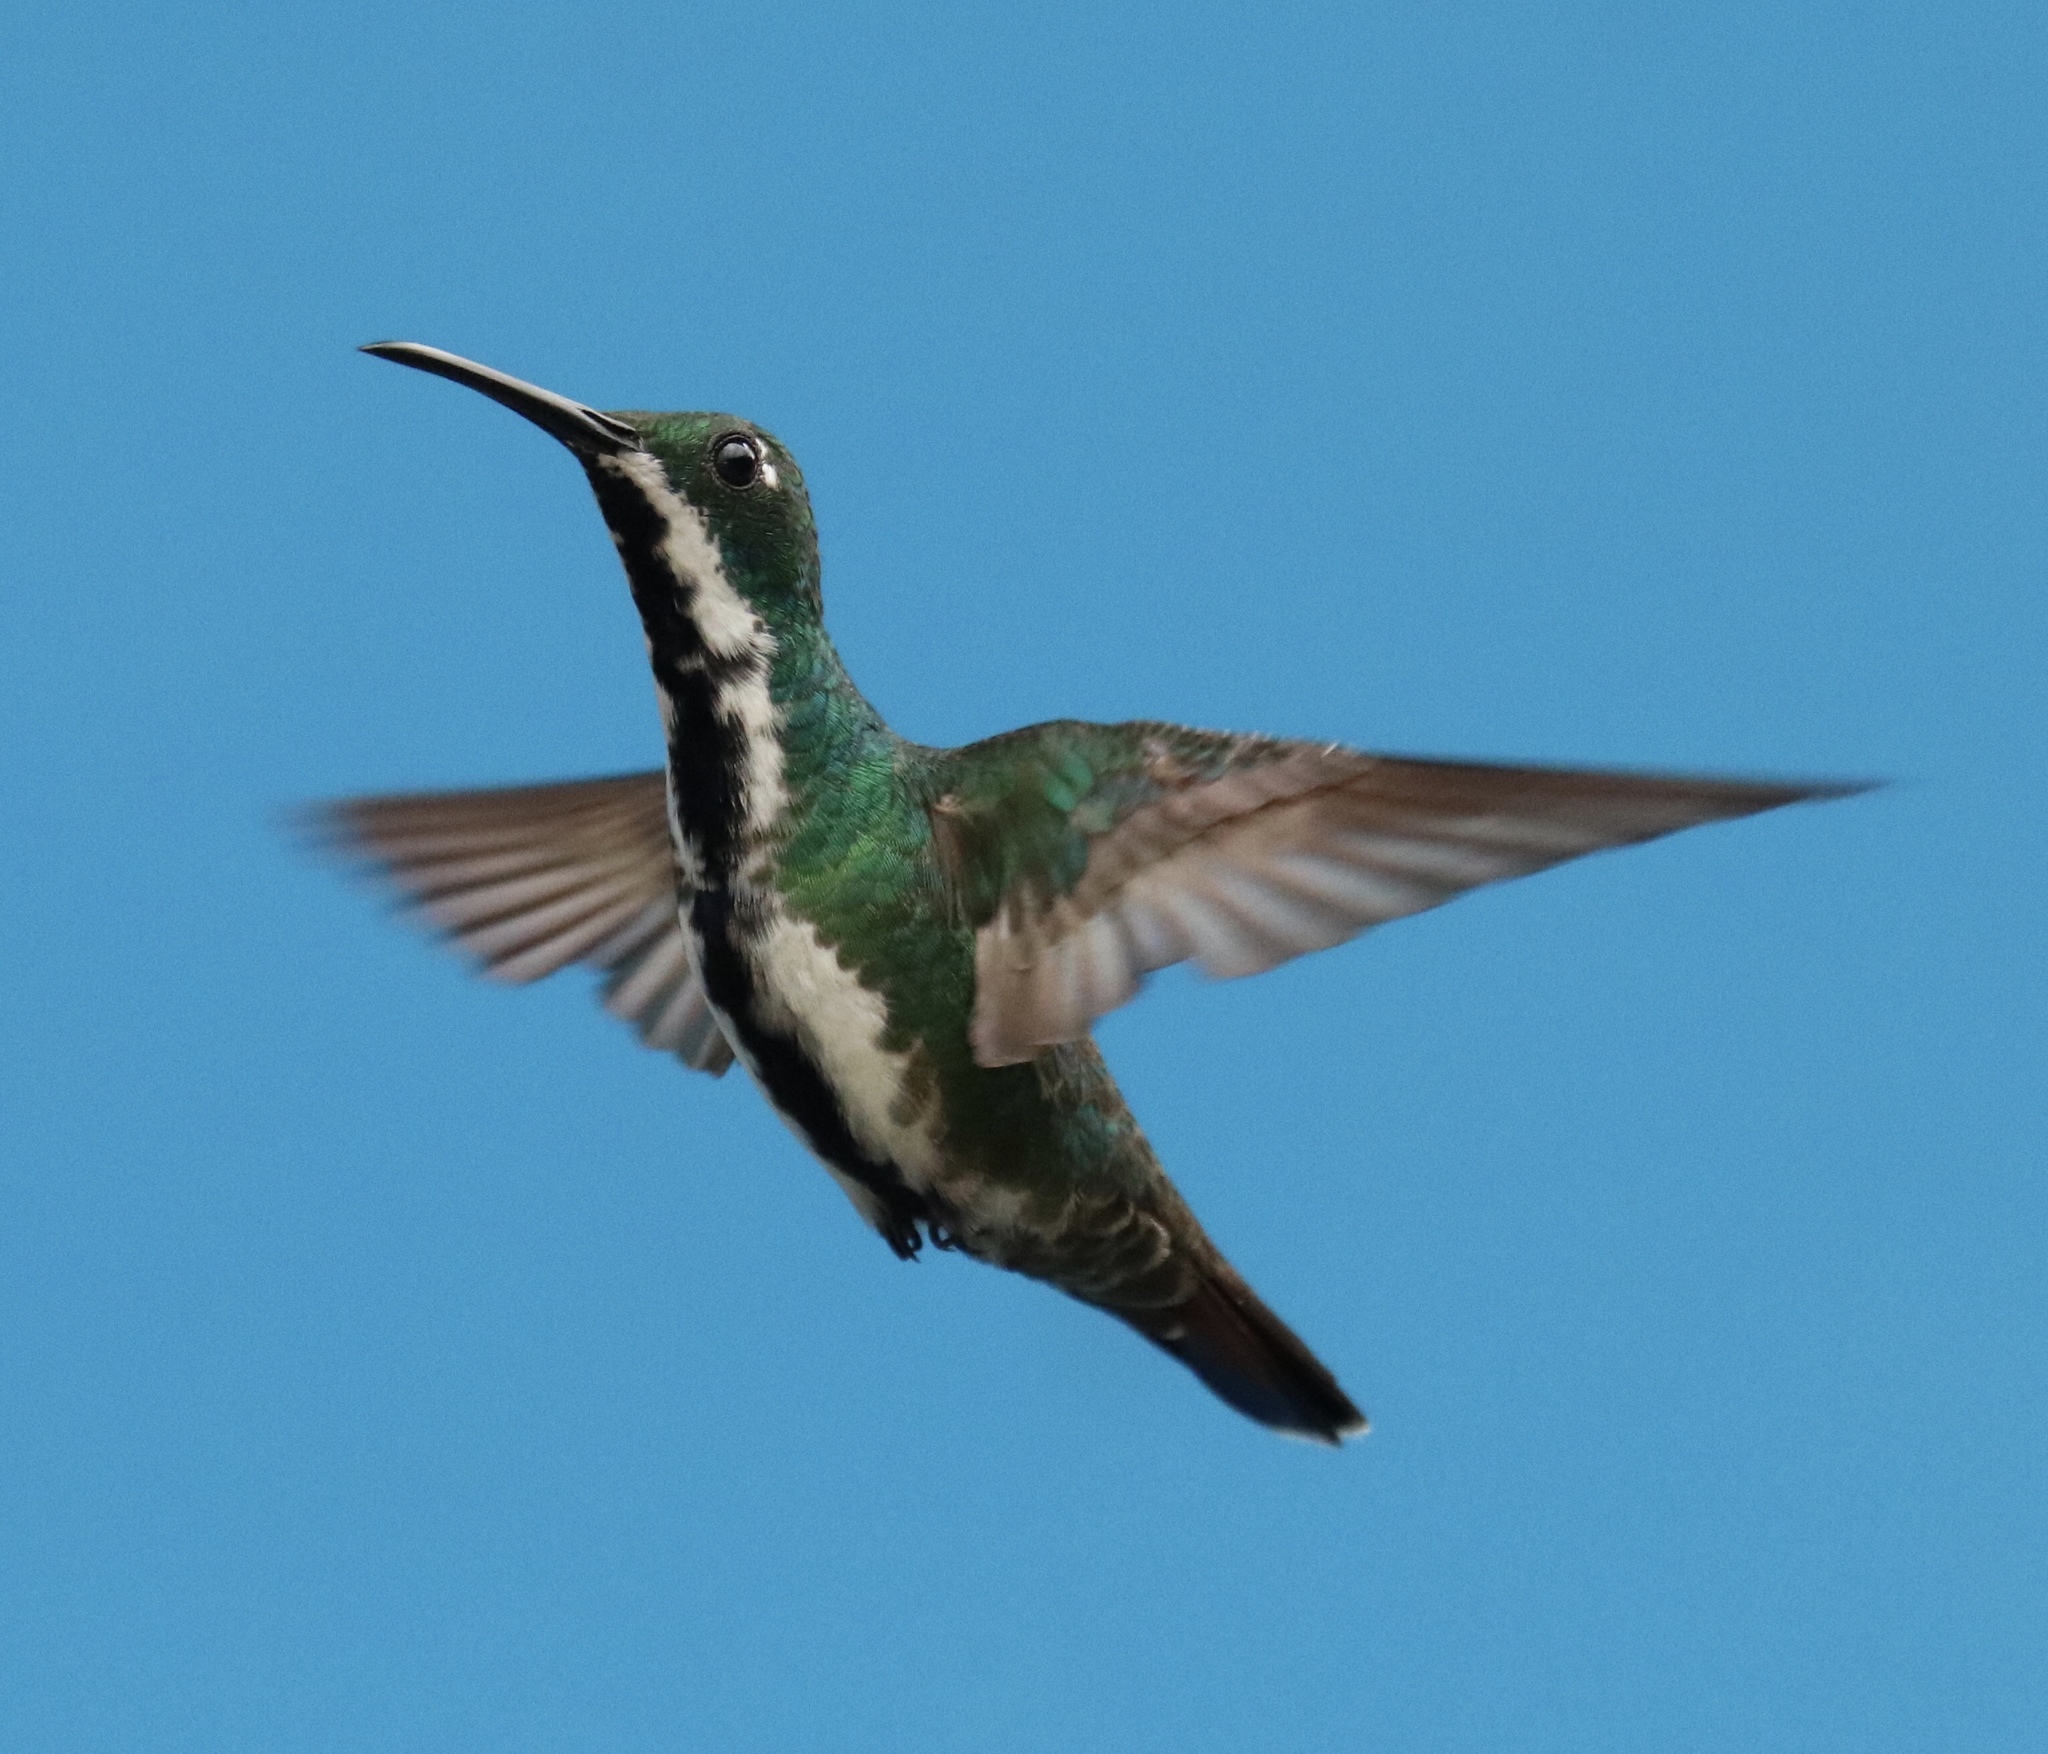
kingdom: Animalia
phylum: Chordata
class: Aves
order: Apodiformes
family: Trochilidae
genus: Anthracothorax
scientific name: Anthracothorax nigricollis
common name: Black-throated mango
